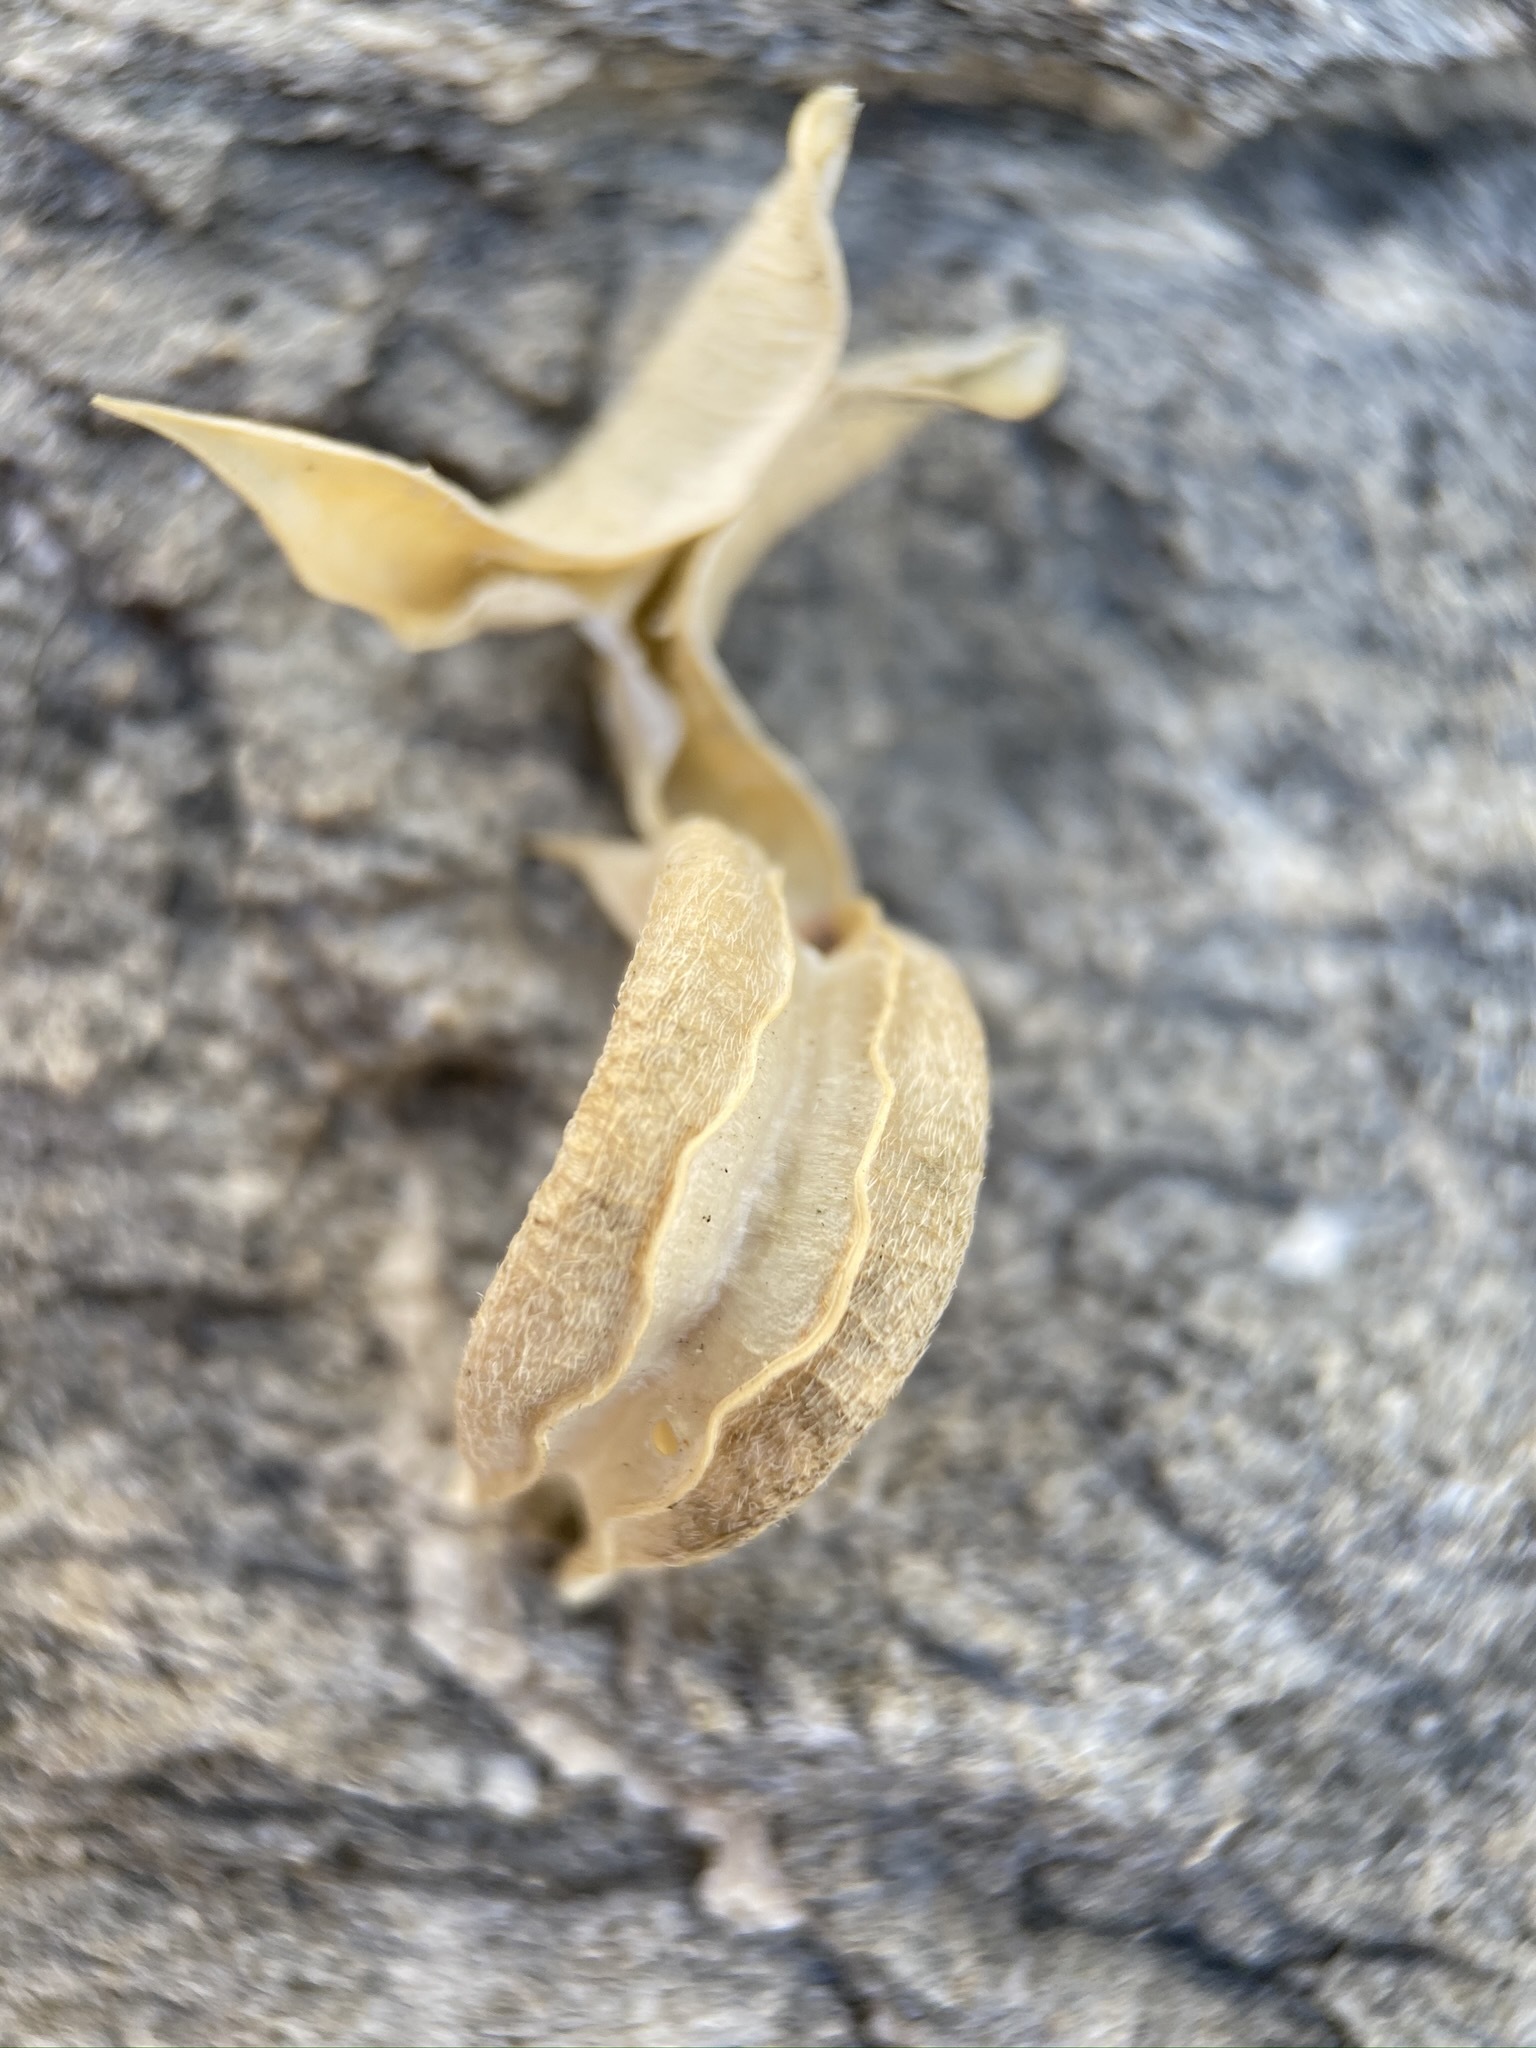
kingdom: Plantae
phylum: Tracheophyta
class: Magnoliopsida
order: Fabales
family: Fabaceae
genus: Astragalus
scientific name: Astragalus mohavensis
